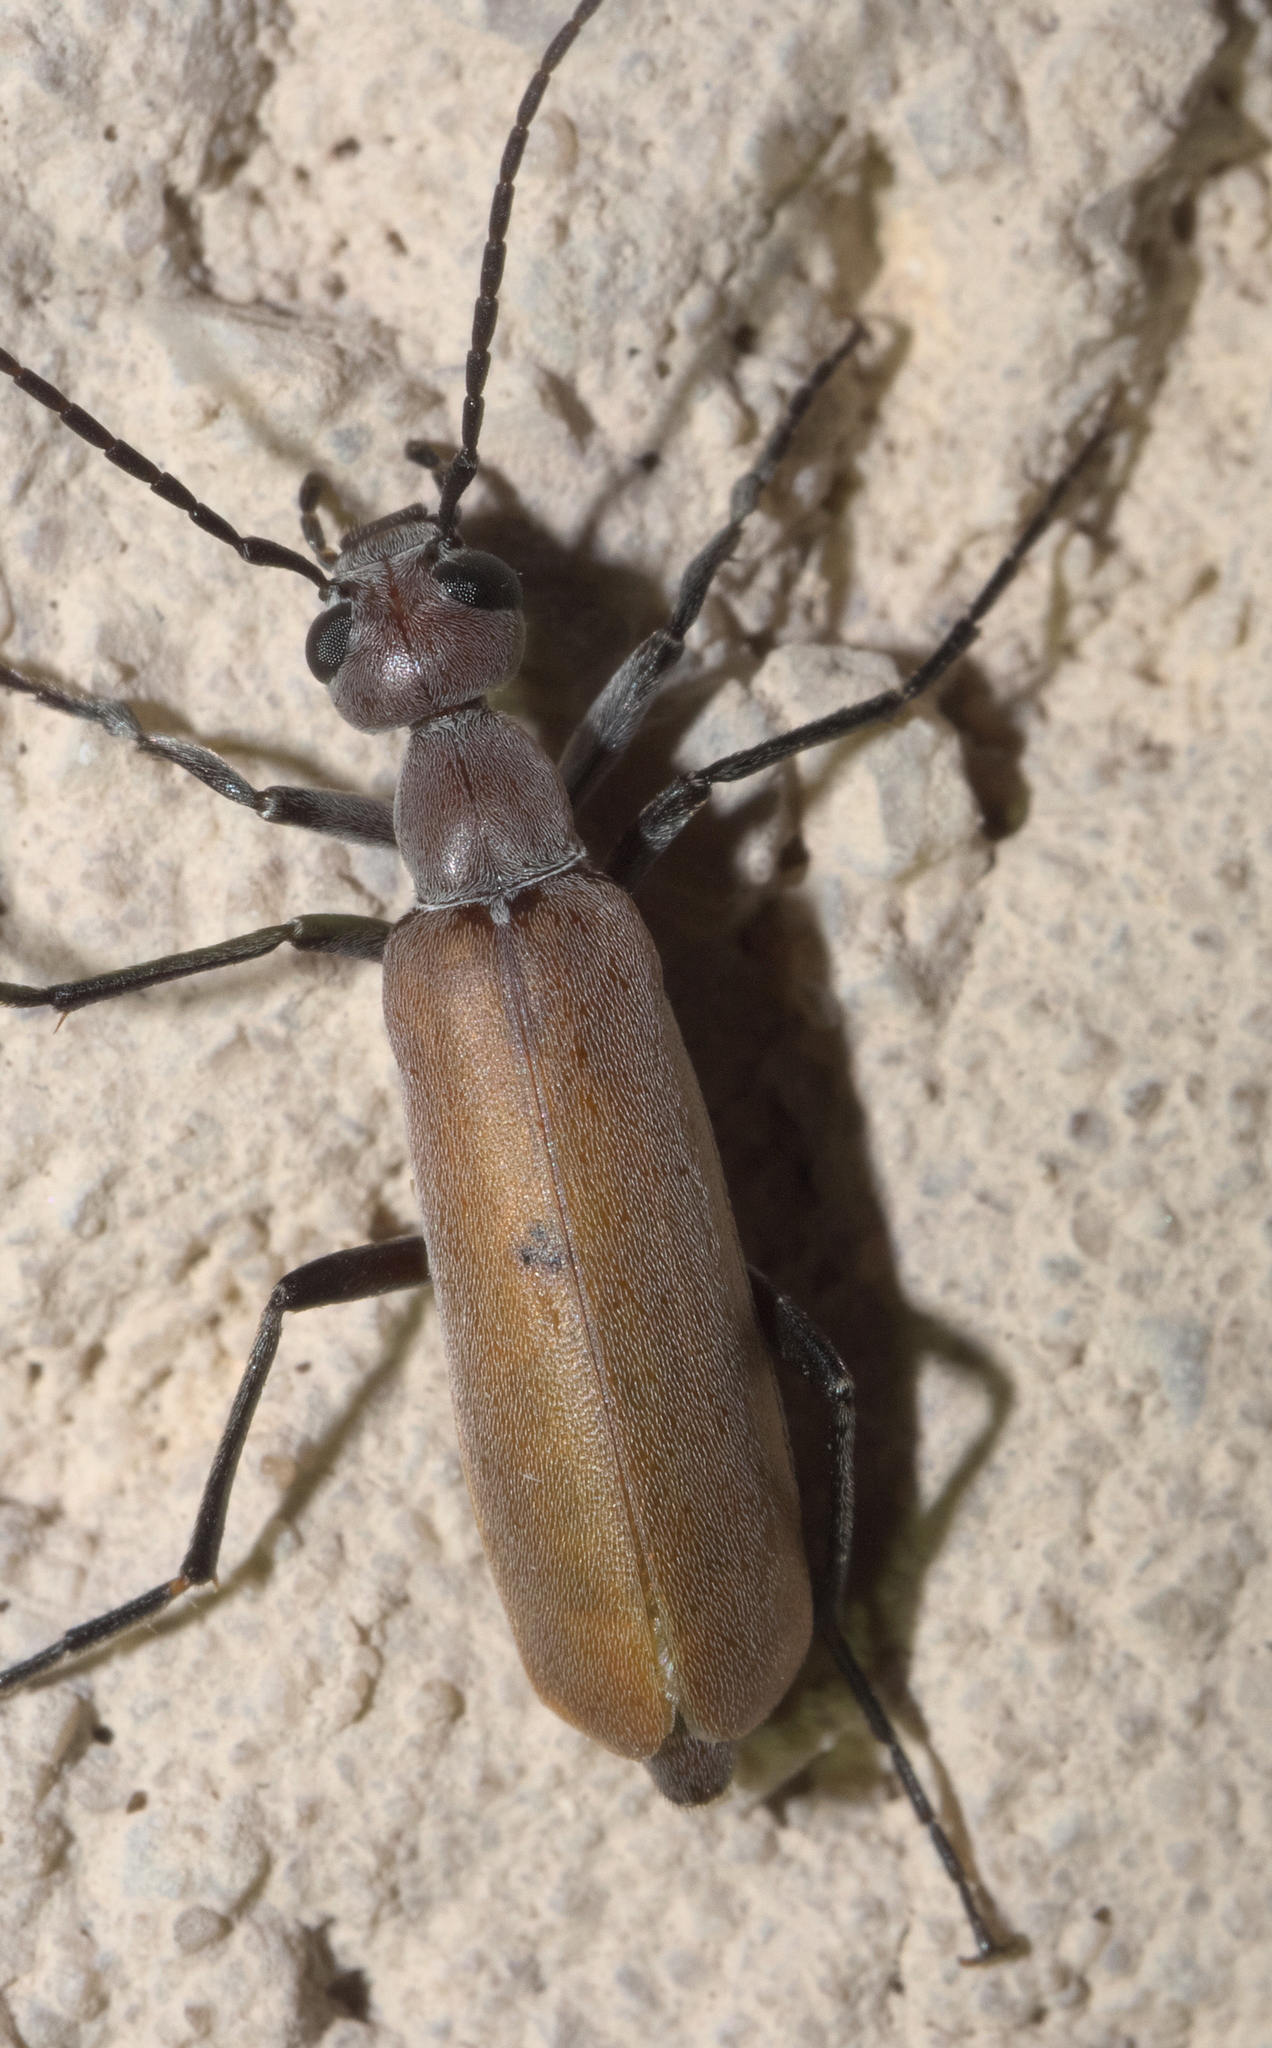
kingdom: Animalia
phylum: Arthropoda
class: Insecta
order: Coleoptera
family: Meloidae
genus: Epicauta
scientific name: Epicauta lauta
